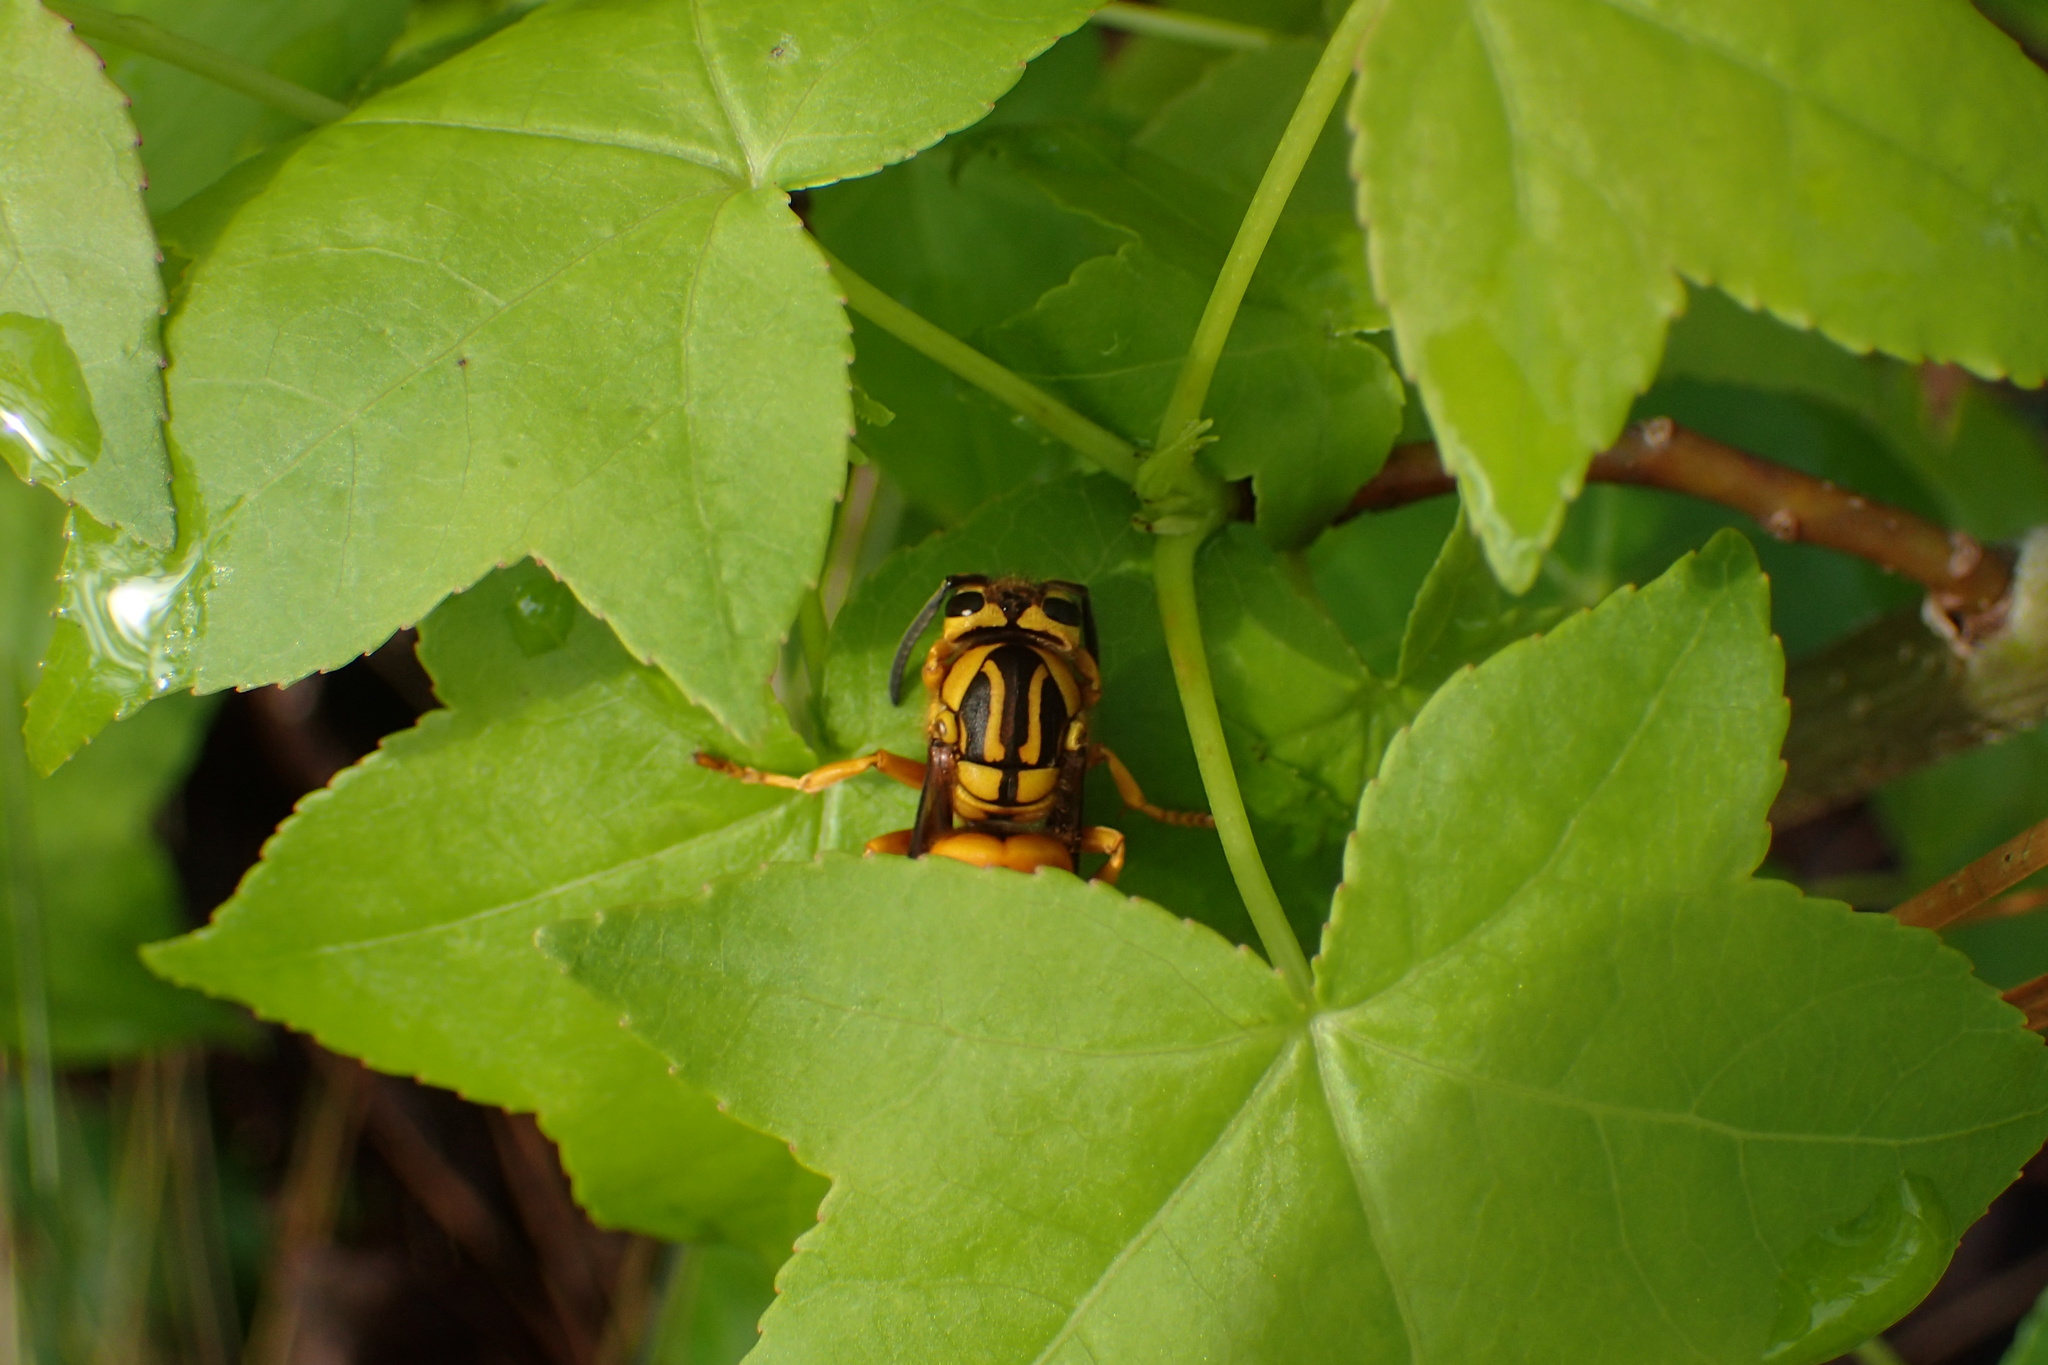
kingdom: Animalia
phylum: Arthropoda
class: Insecta
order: Hymenoptera
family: Vespidae
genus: Vespula
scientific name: Vespula squamosa
